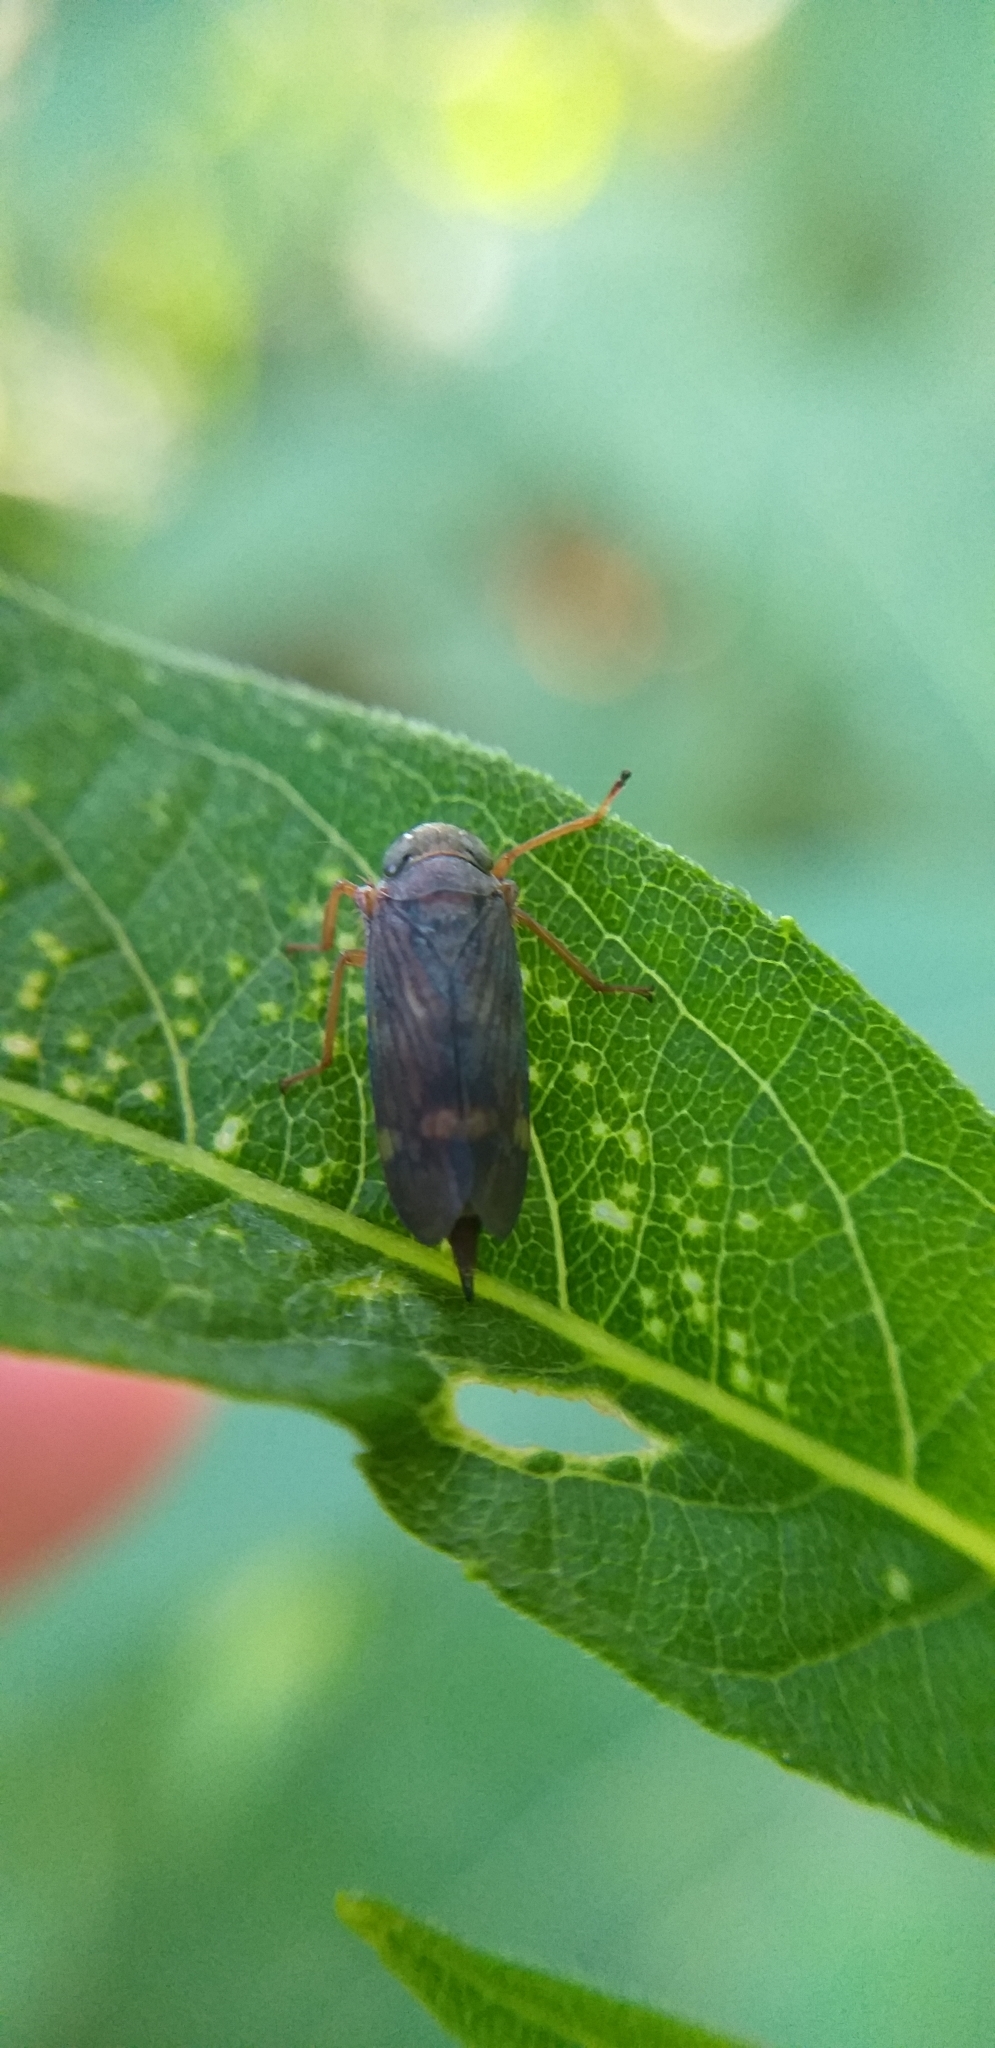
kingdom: Animalia
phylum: Arthropoda
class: Insecta
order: Hemiptera
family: Cicadellidae
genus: Jikradia
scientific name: Jikradia olitoria
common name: Coppery leafhopper
